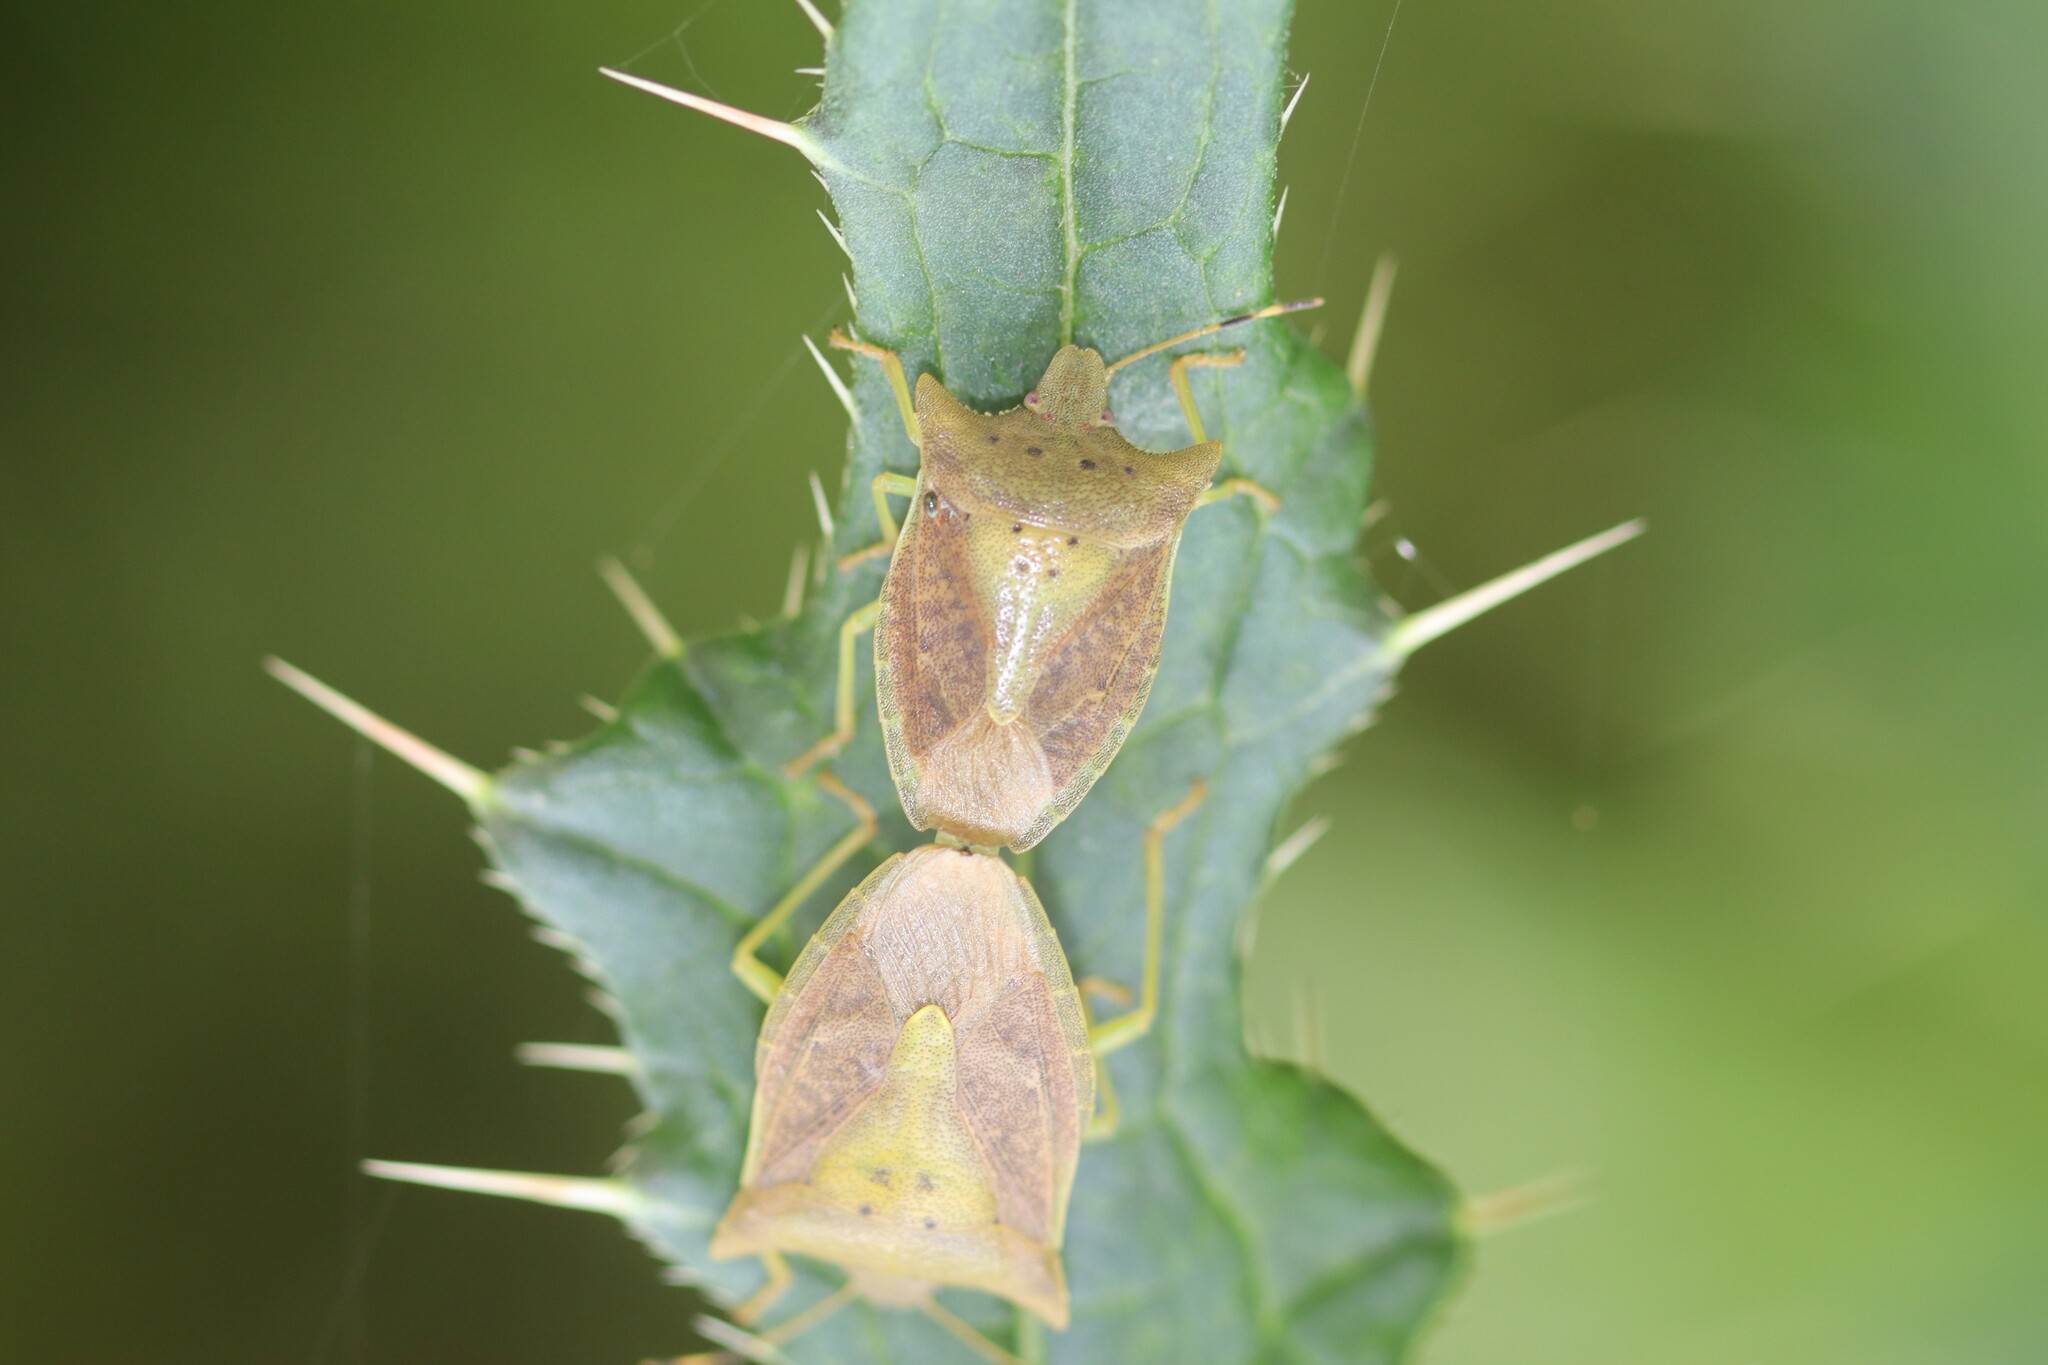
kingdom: Animalia
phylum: Arthropoda
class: Insecta
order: Hemiptera
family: Pentatomidae
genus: Lelia
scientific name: Lelia octopunctata
